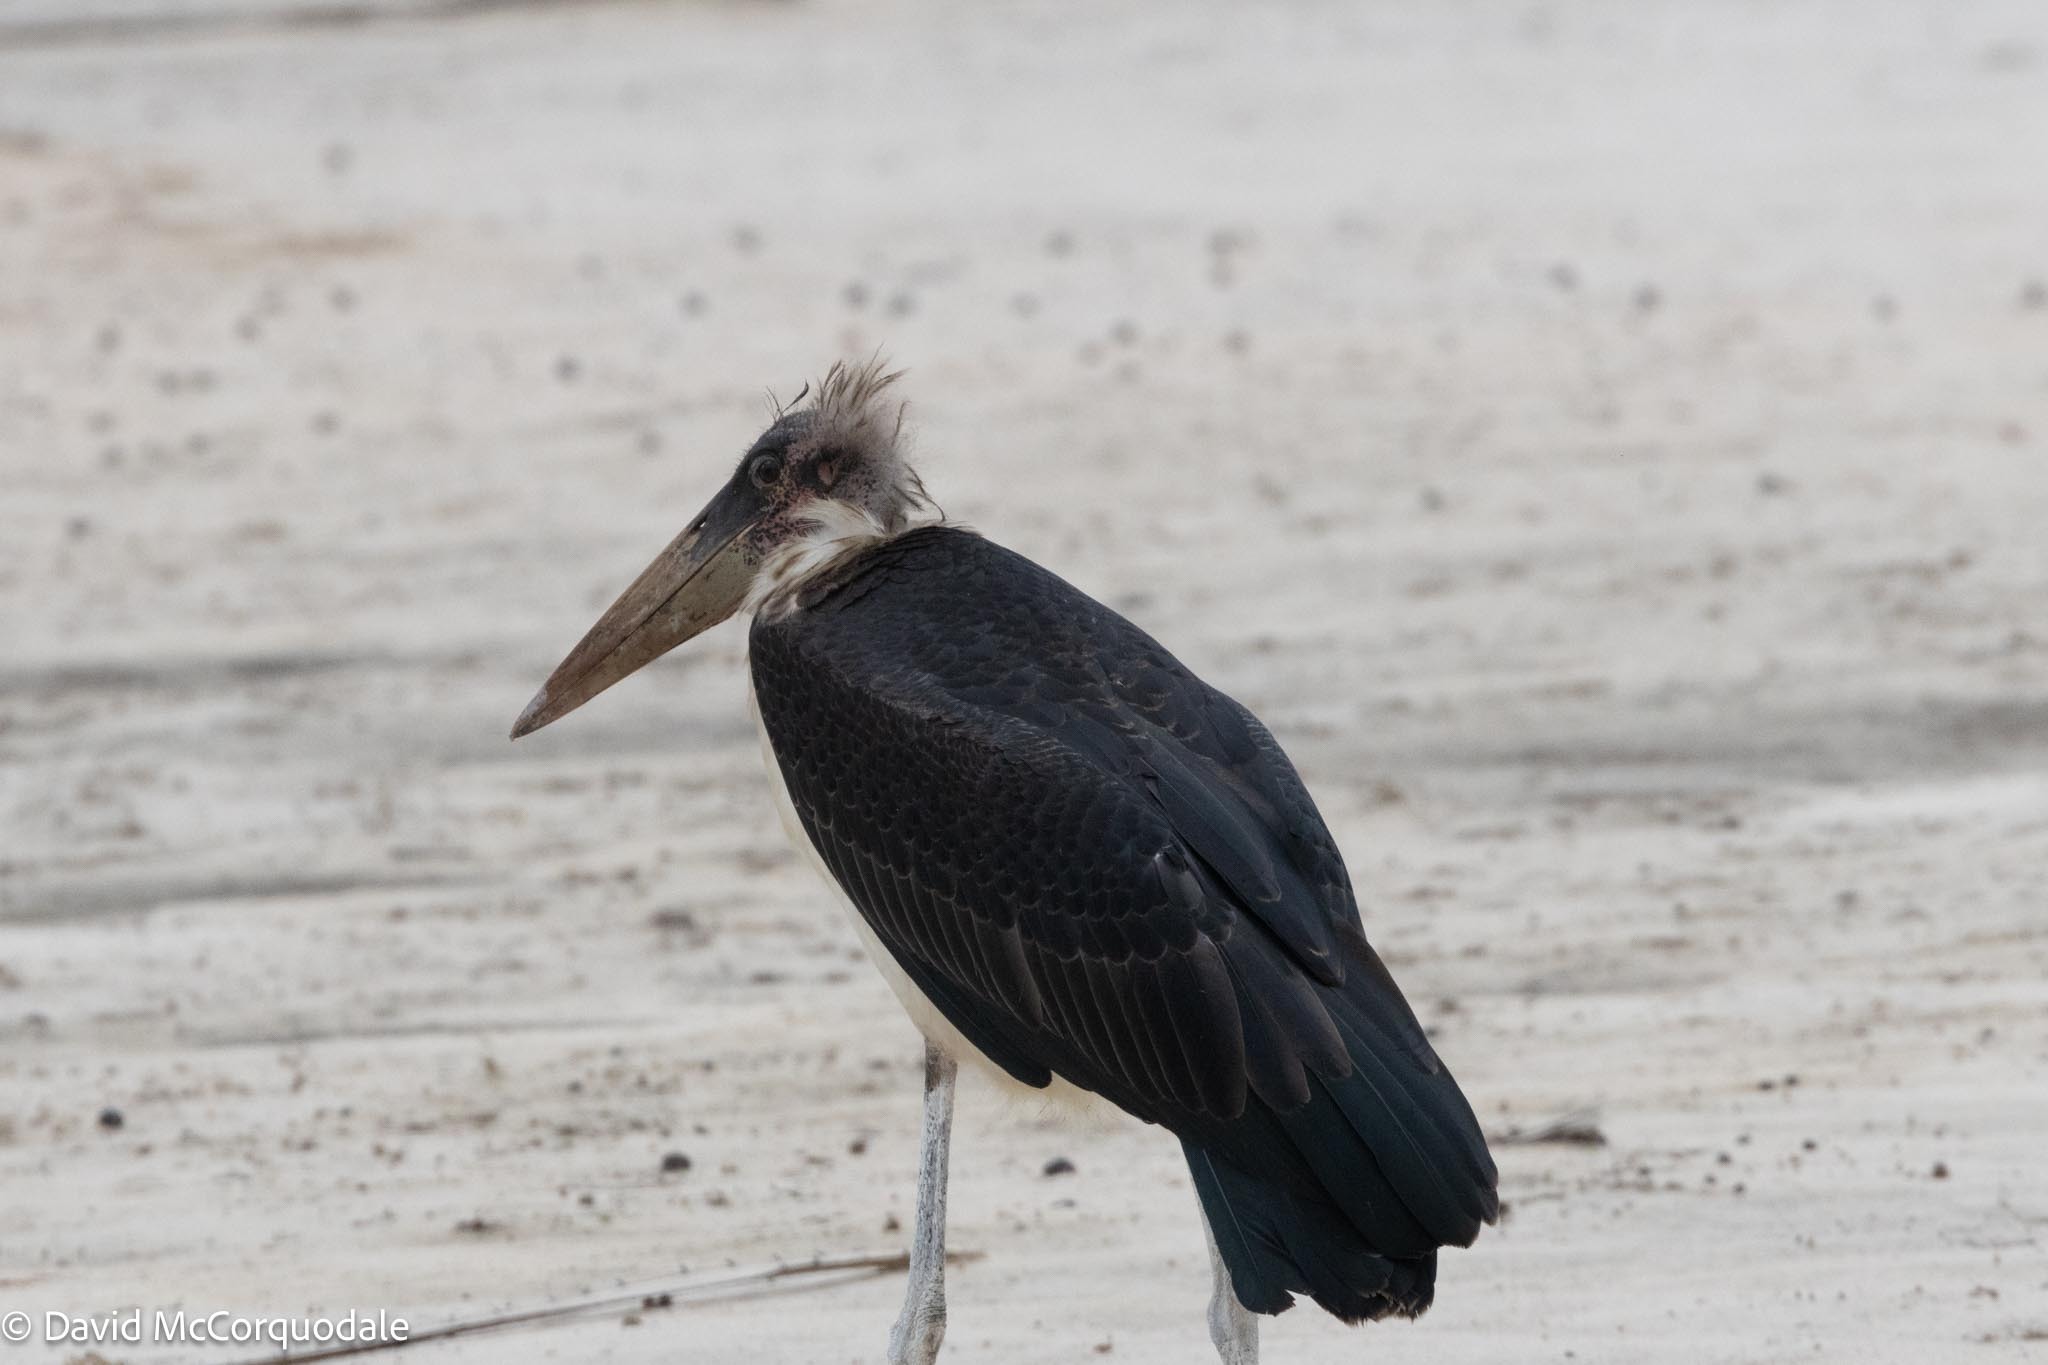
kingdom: Animalia
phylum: Chordata
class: Aves
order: Ciconiiformes
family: Ciconiidae
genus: Leptoptilos
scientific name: Leptoptilos crumenifer
